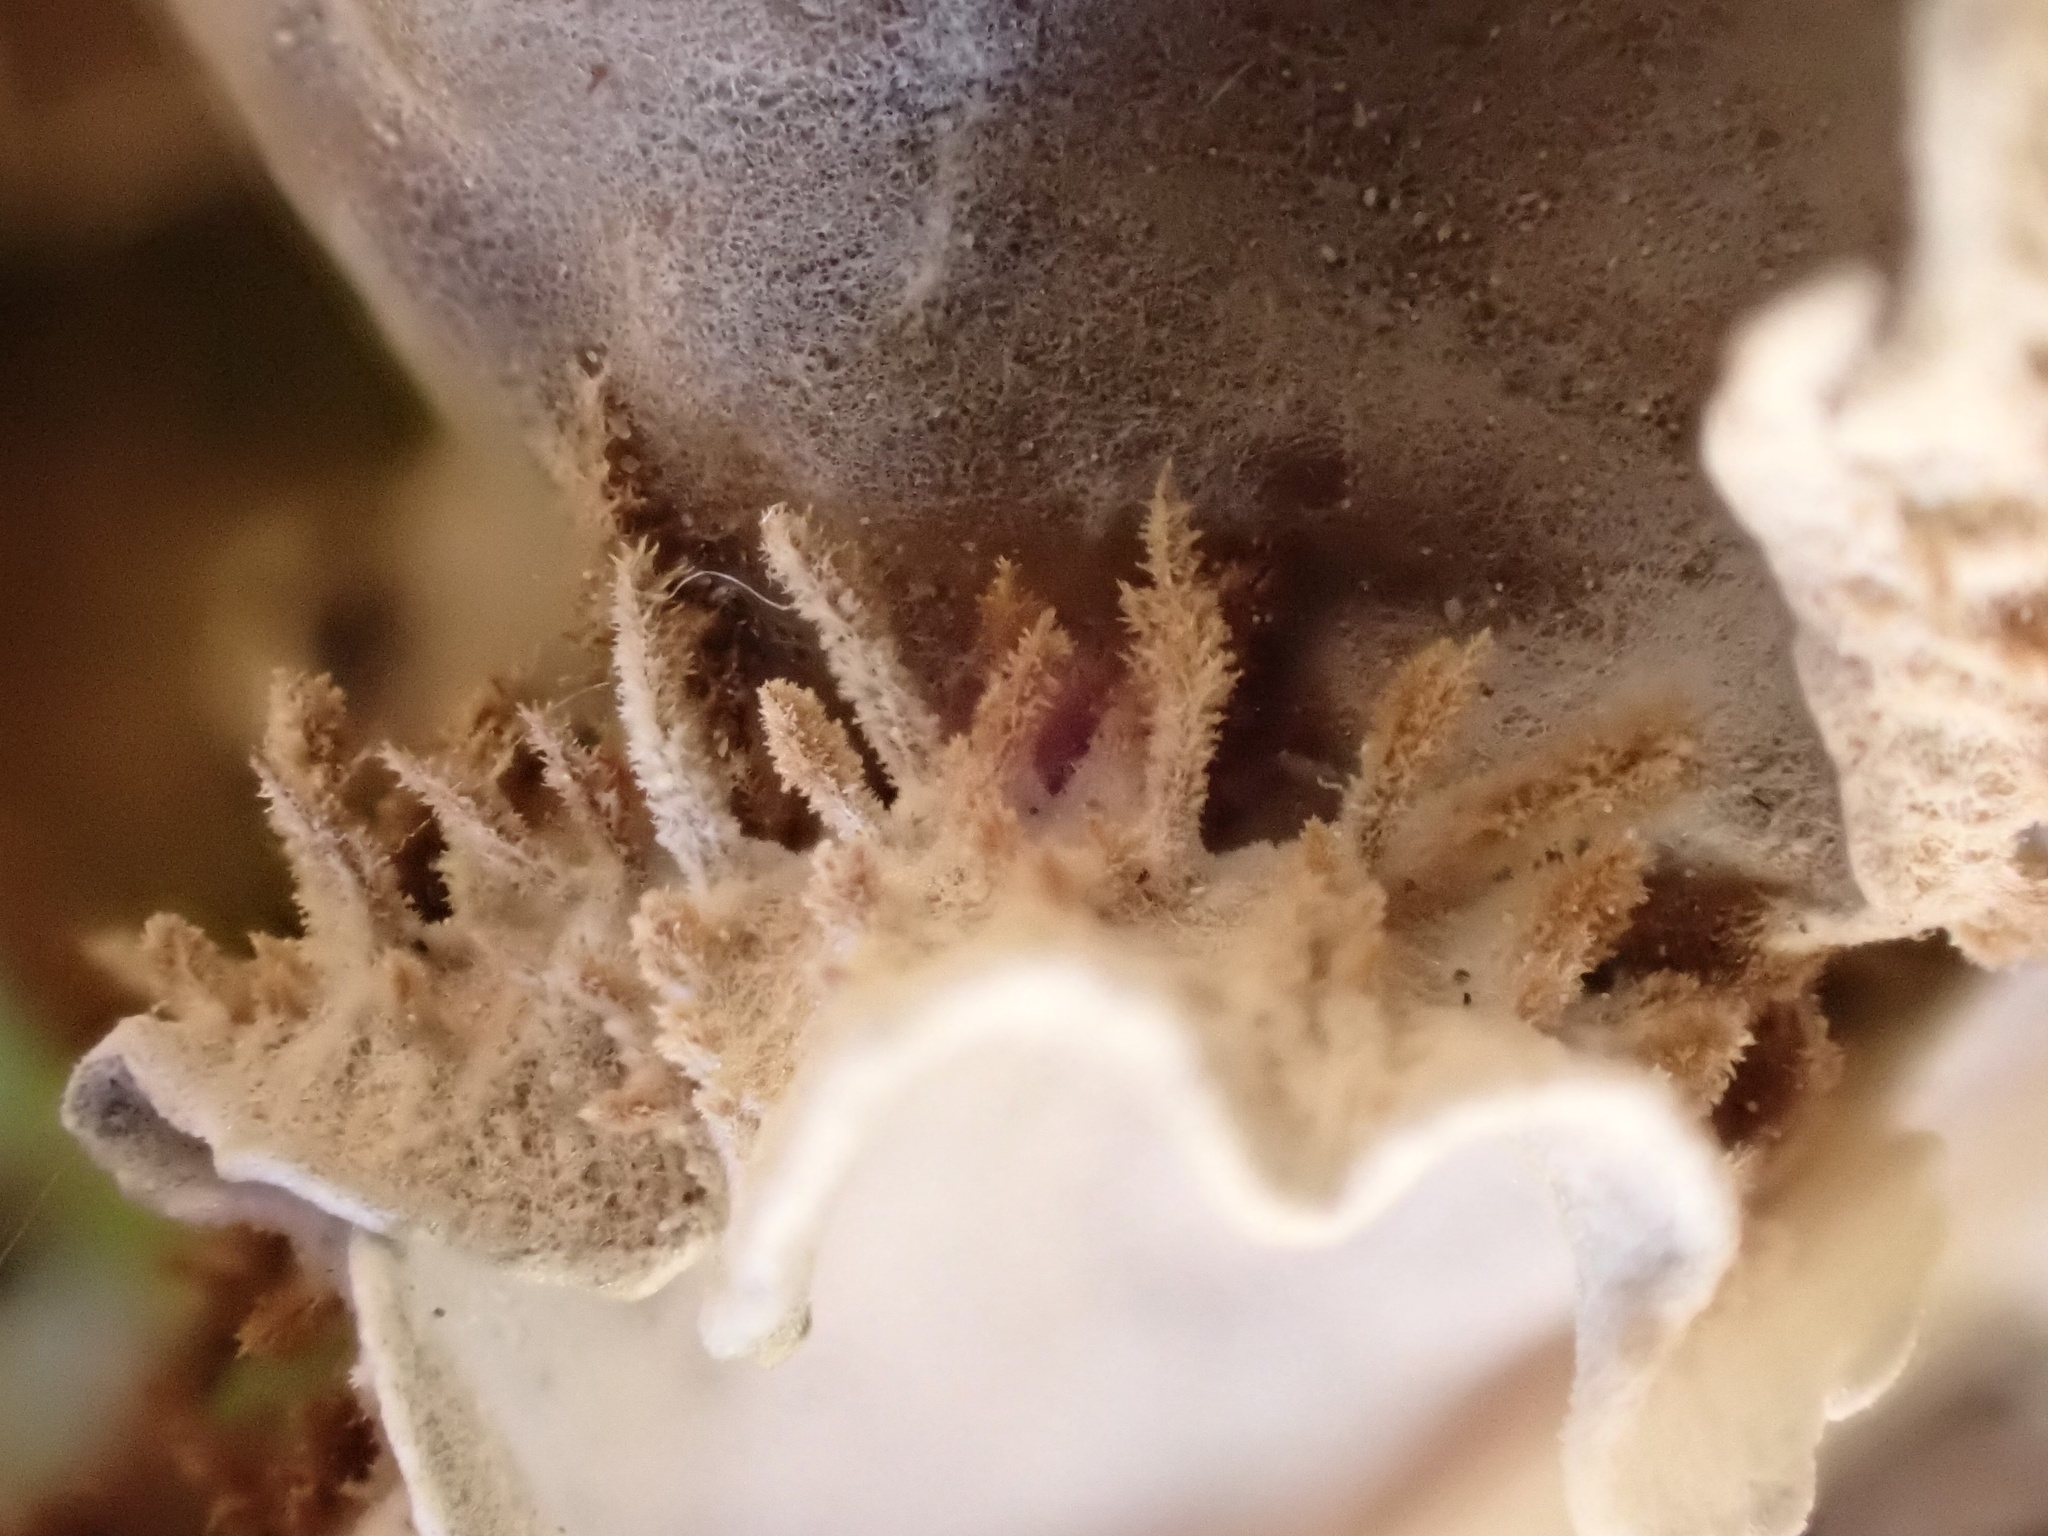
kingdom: Fungi
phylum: Ascomycota
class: Lecanoromycetes
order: Peltigerales
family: Peltigeraceae
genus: Peltigera
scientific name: Peltigera canina
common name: Dog pelt lichen
